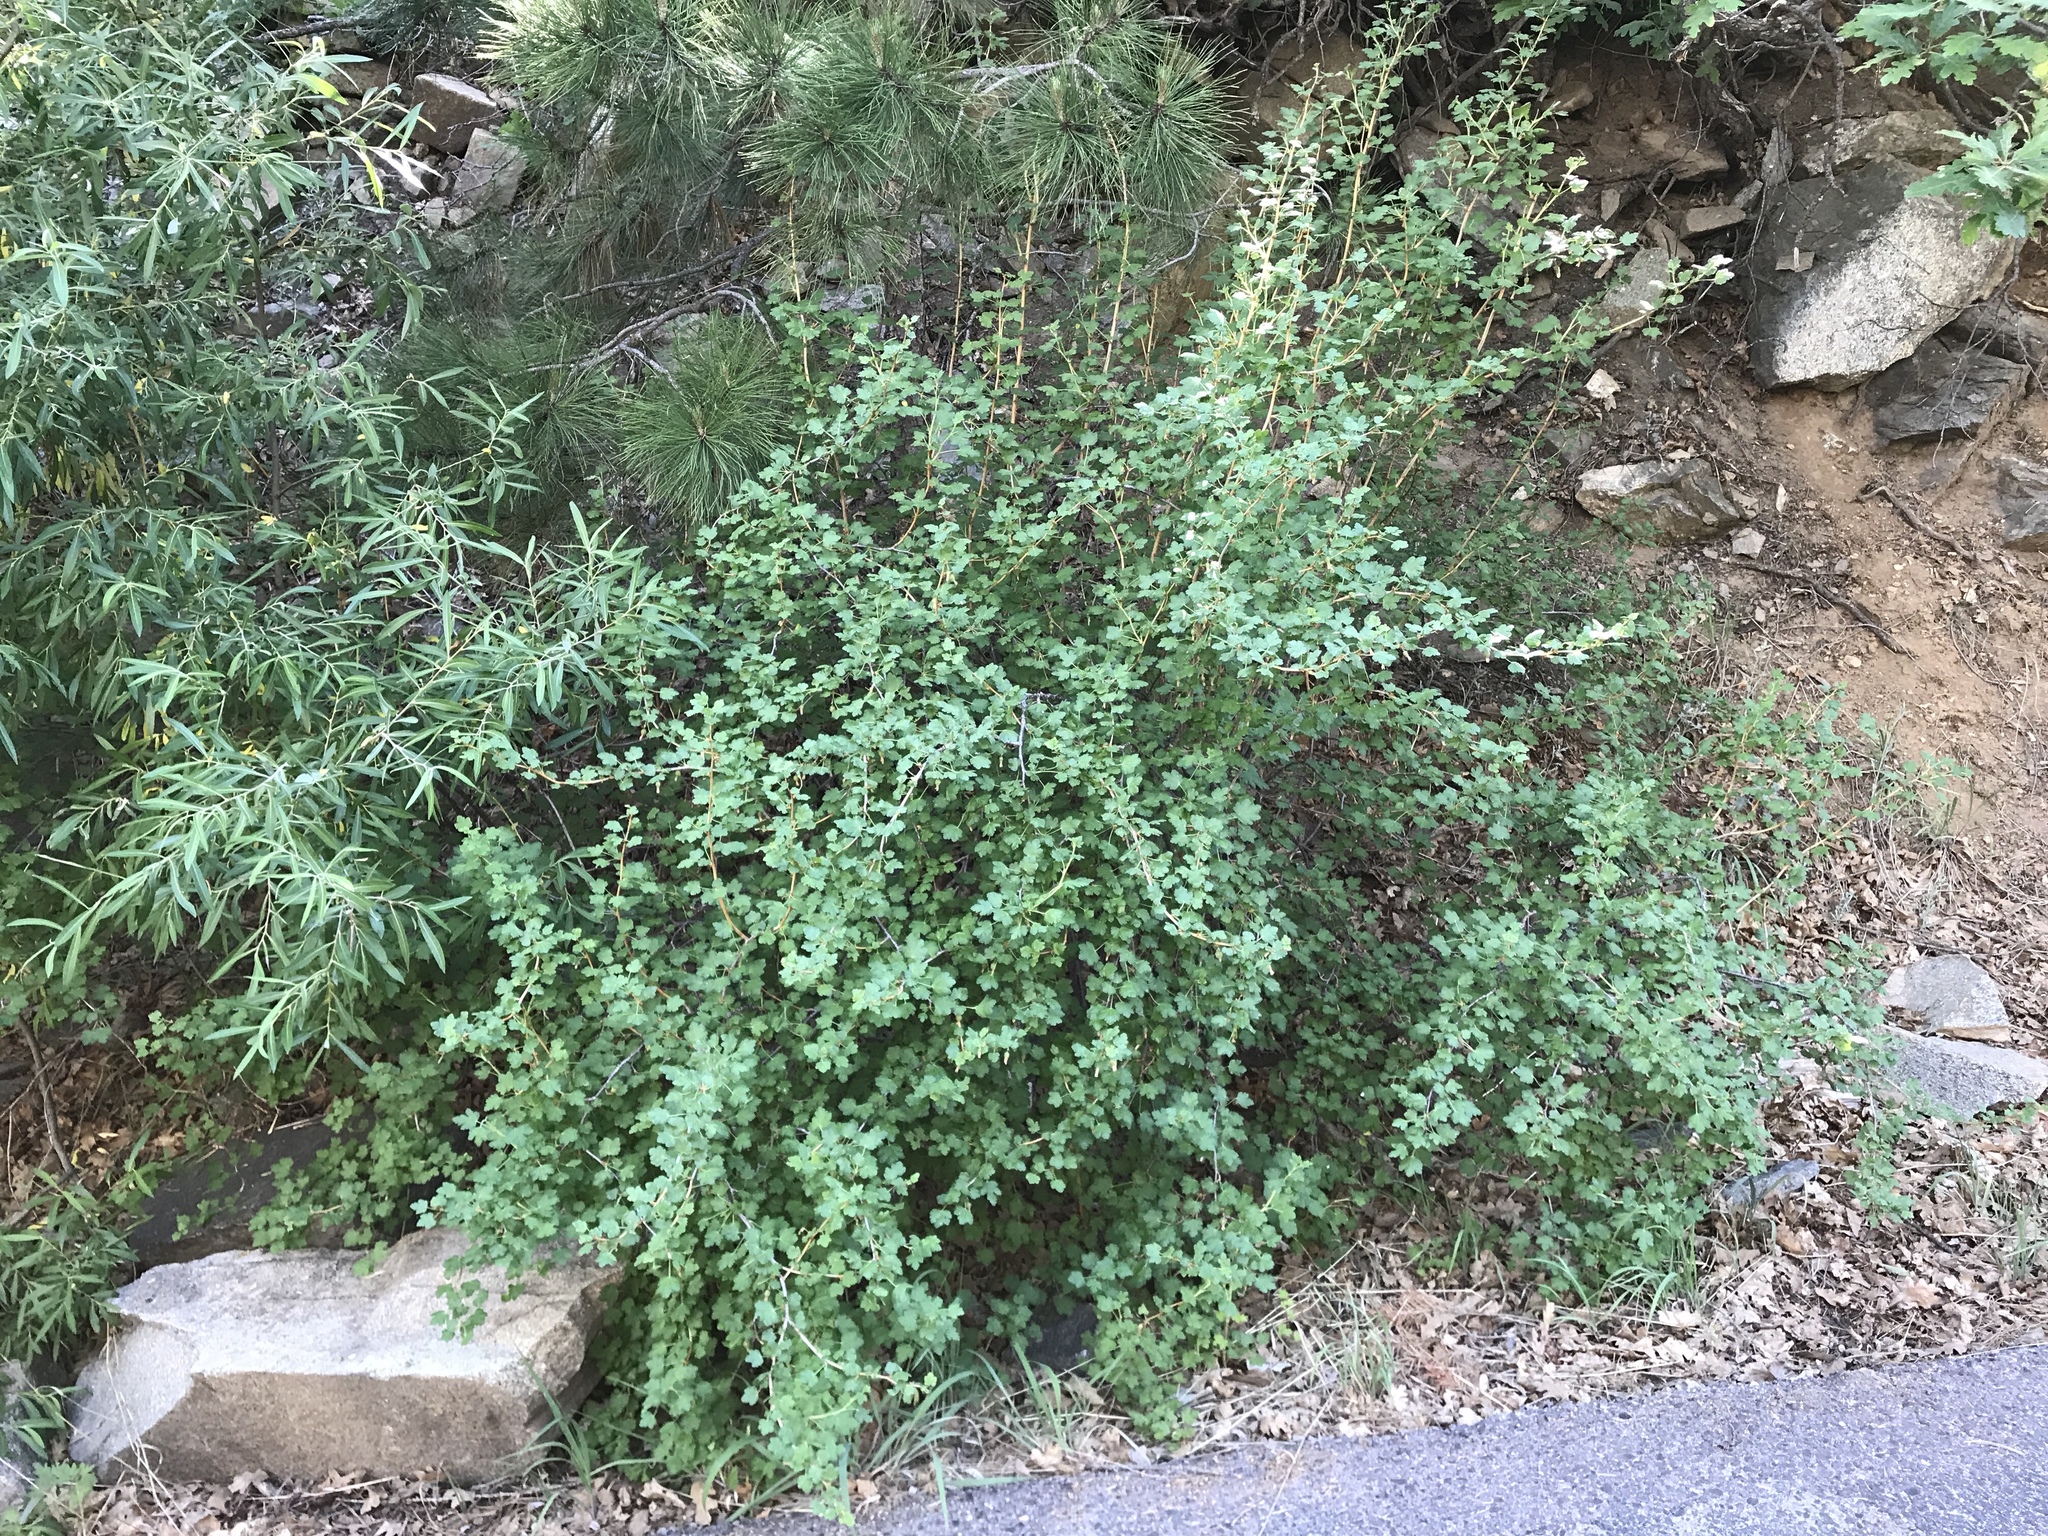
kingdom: Plantae
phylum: Tracheophyta
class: Magnoliopsida
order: Saxifragales
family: Grossulariaceae
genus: Ribes
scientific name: Ribes pinetorum
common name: Orange gooseberry
